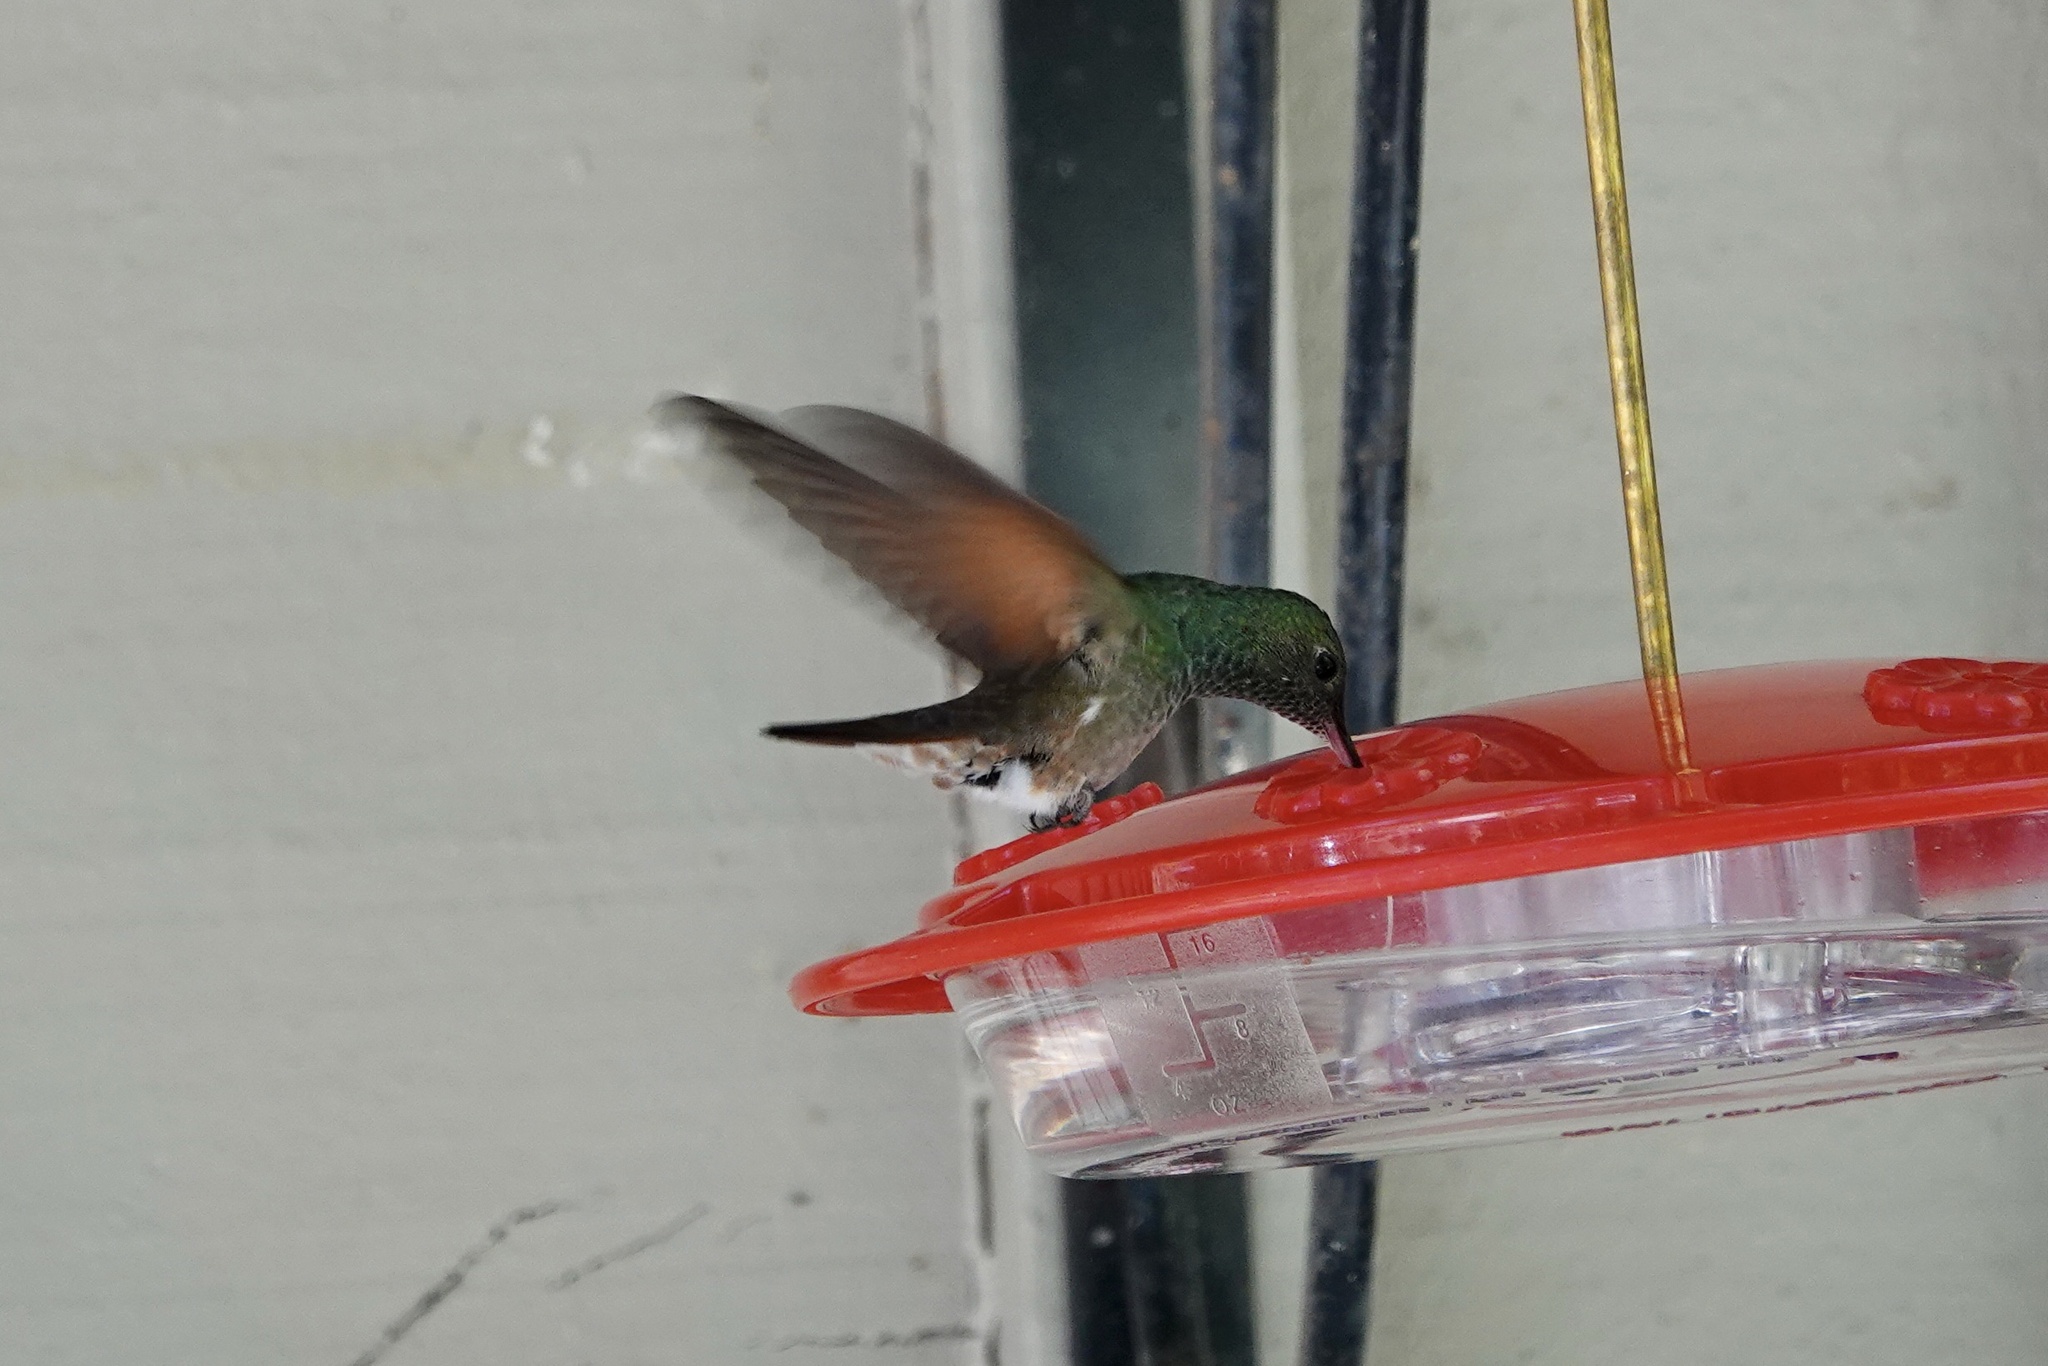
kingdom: Animalia
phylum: Chordata
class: Aves
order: Apodiformes
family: Trochilidae
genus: Saucerottia
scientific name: Saucerottia beryllina
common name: Berylline hummingbird
